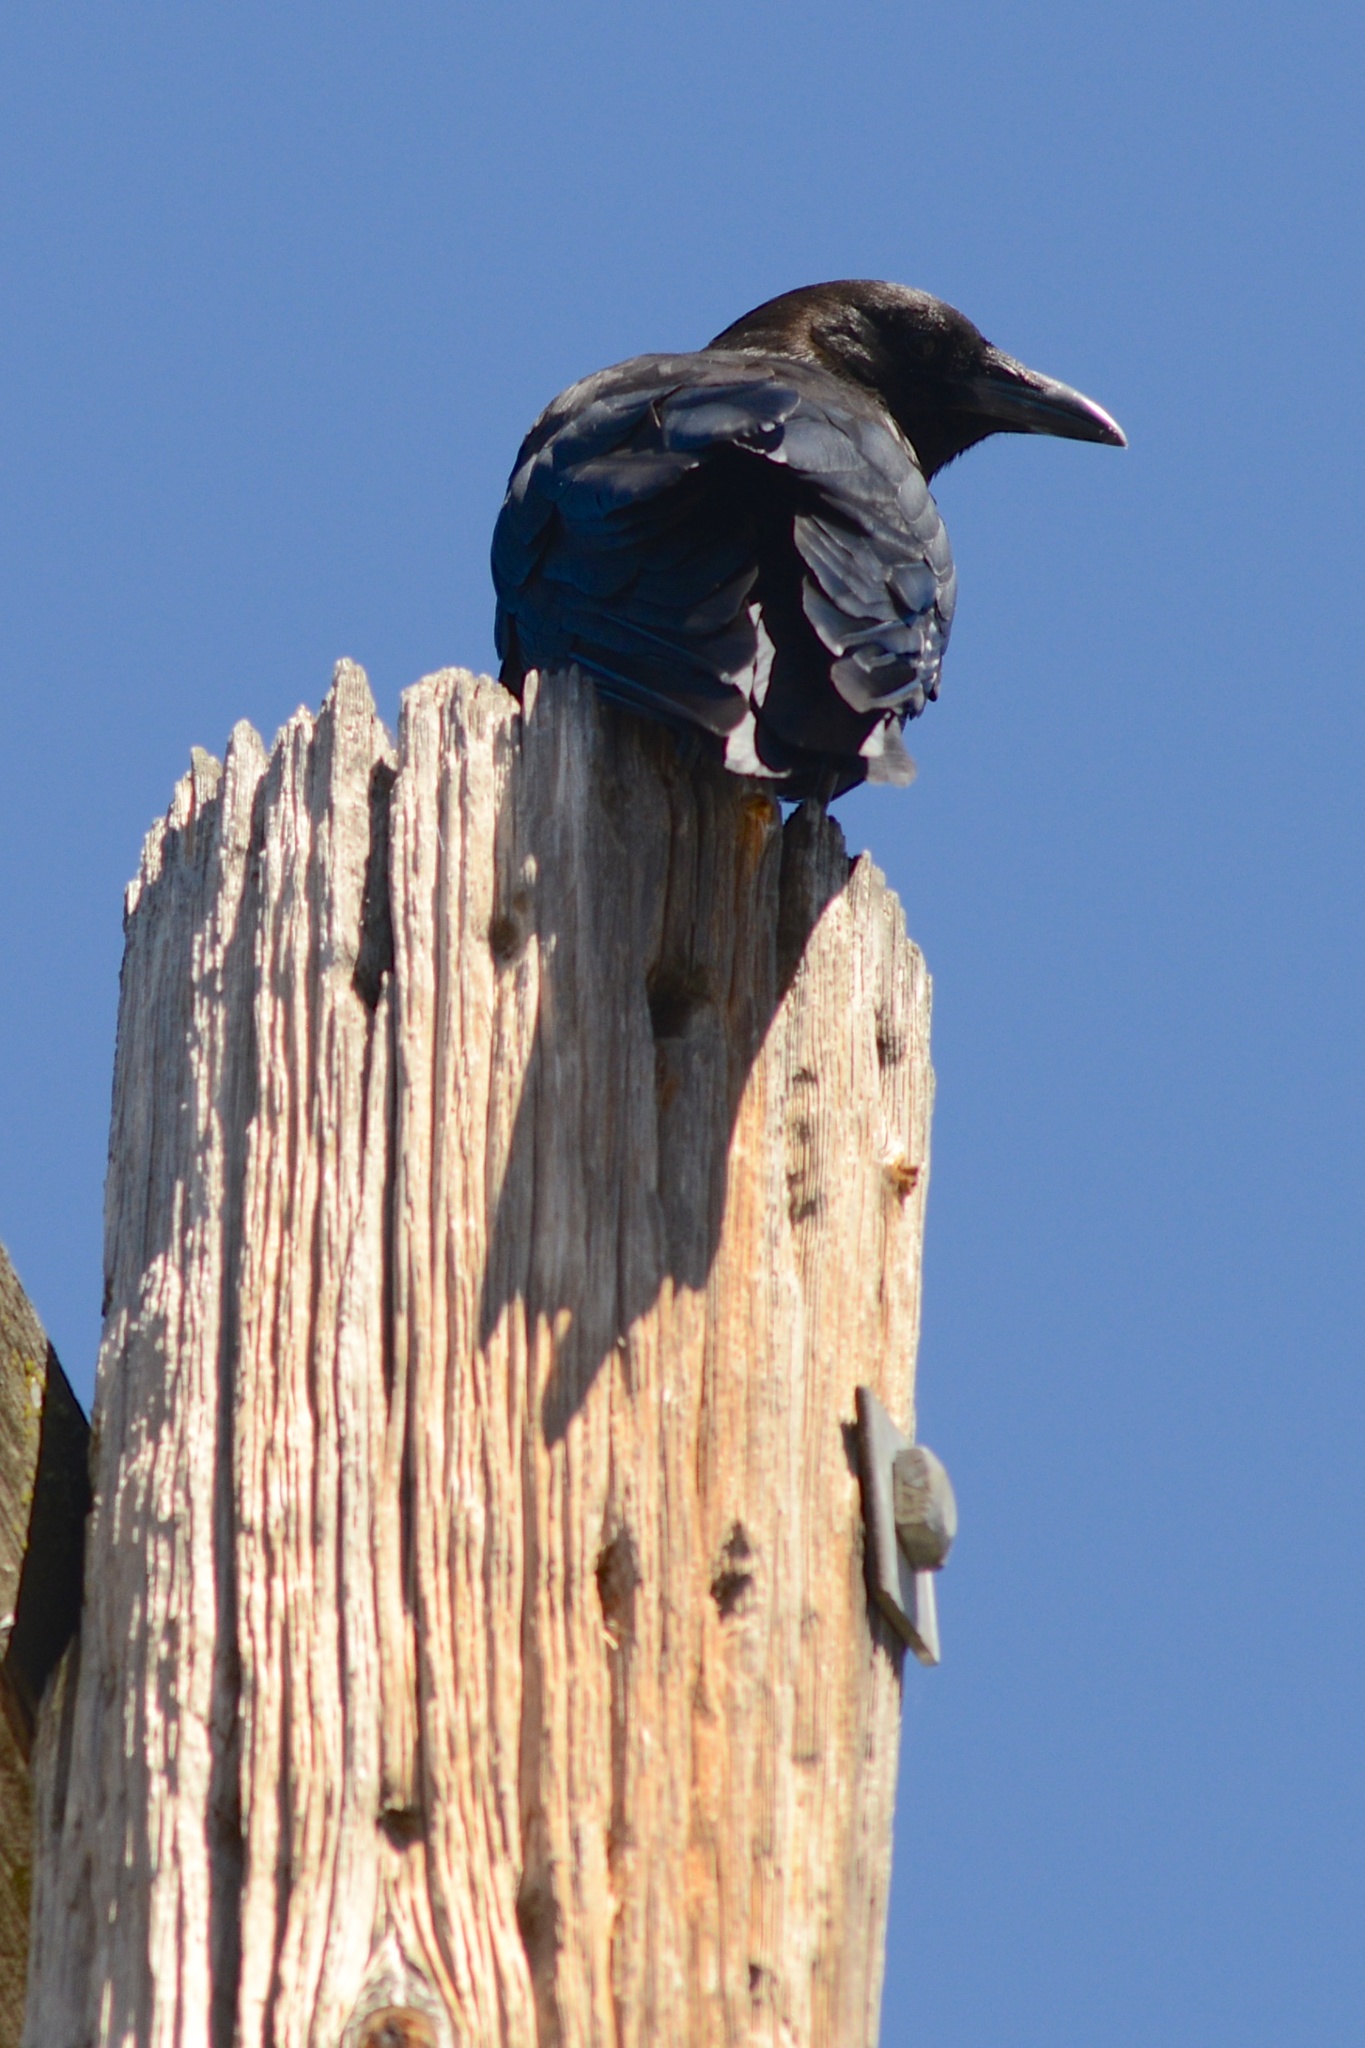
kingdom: Animalia
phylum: Chordata
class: Aves
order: Passeriformes
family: Corvidae
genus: Corvus
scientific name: Corvus brachyrhynchos
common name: American crow
